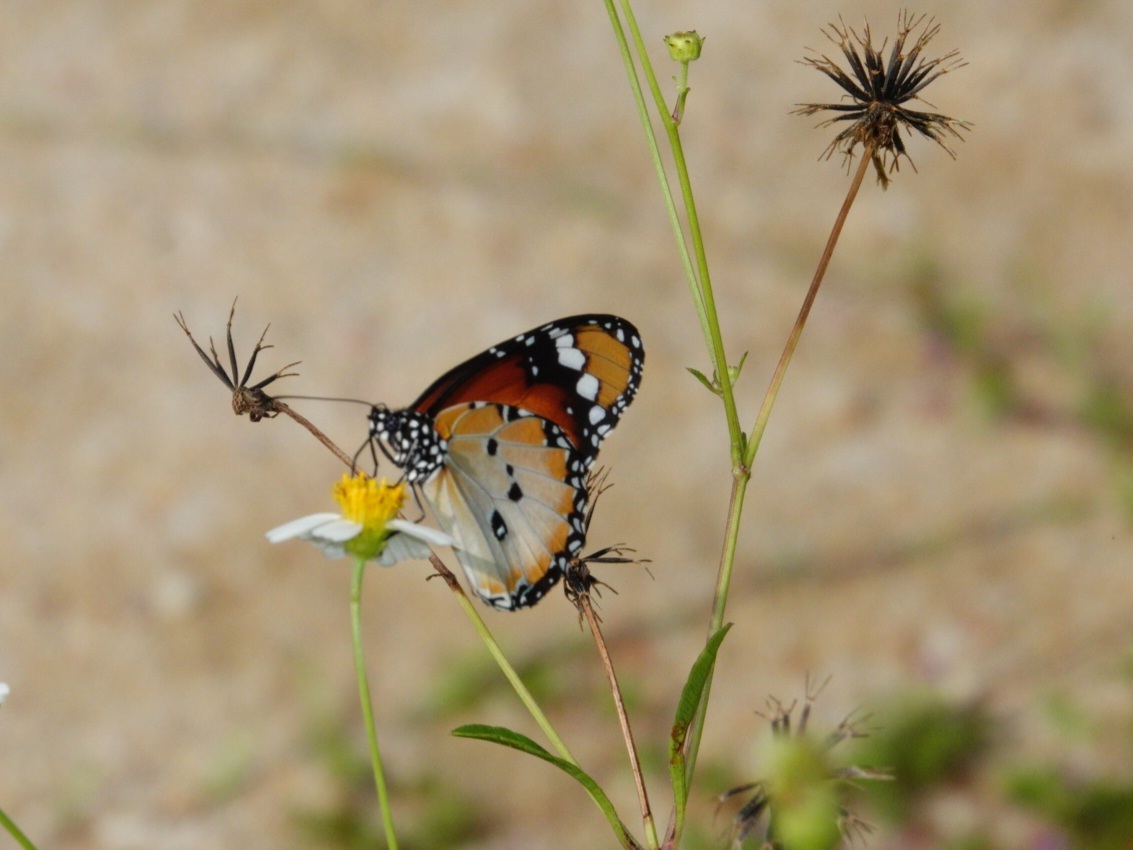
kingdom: Animalia
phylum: Arthropoda
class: Insecta
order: Lepidoptera
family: Nymphalidae
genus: Danaus
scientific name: Danaus chrysippus
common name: Plain tiger
